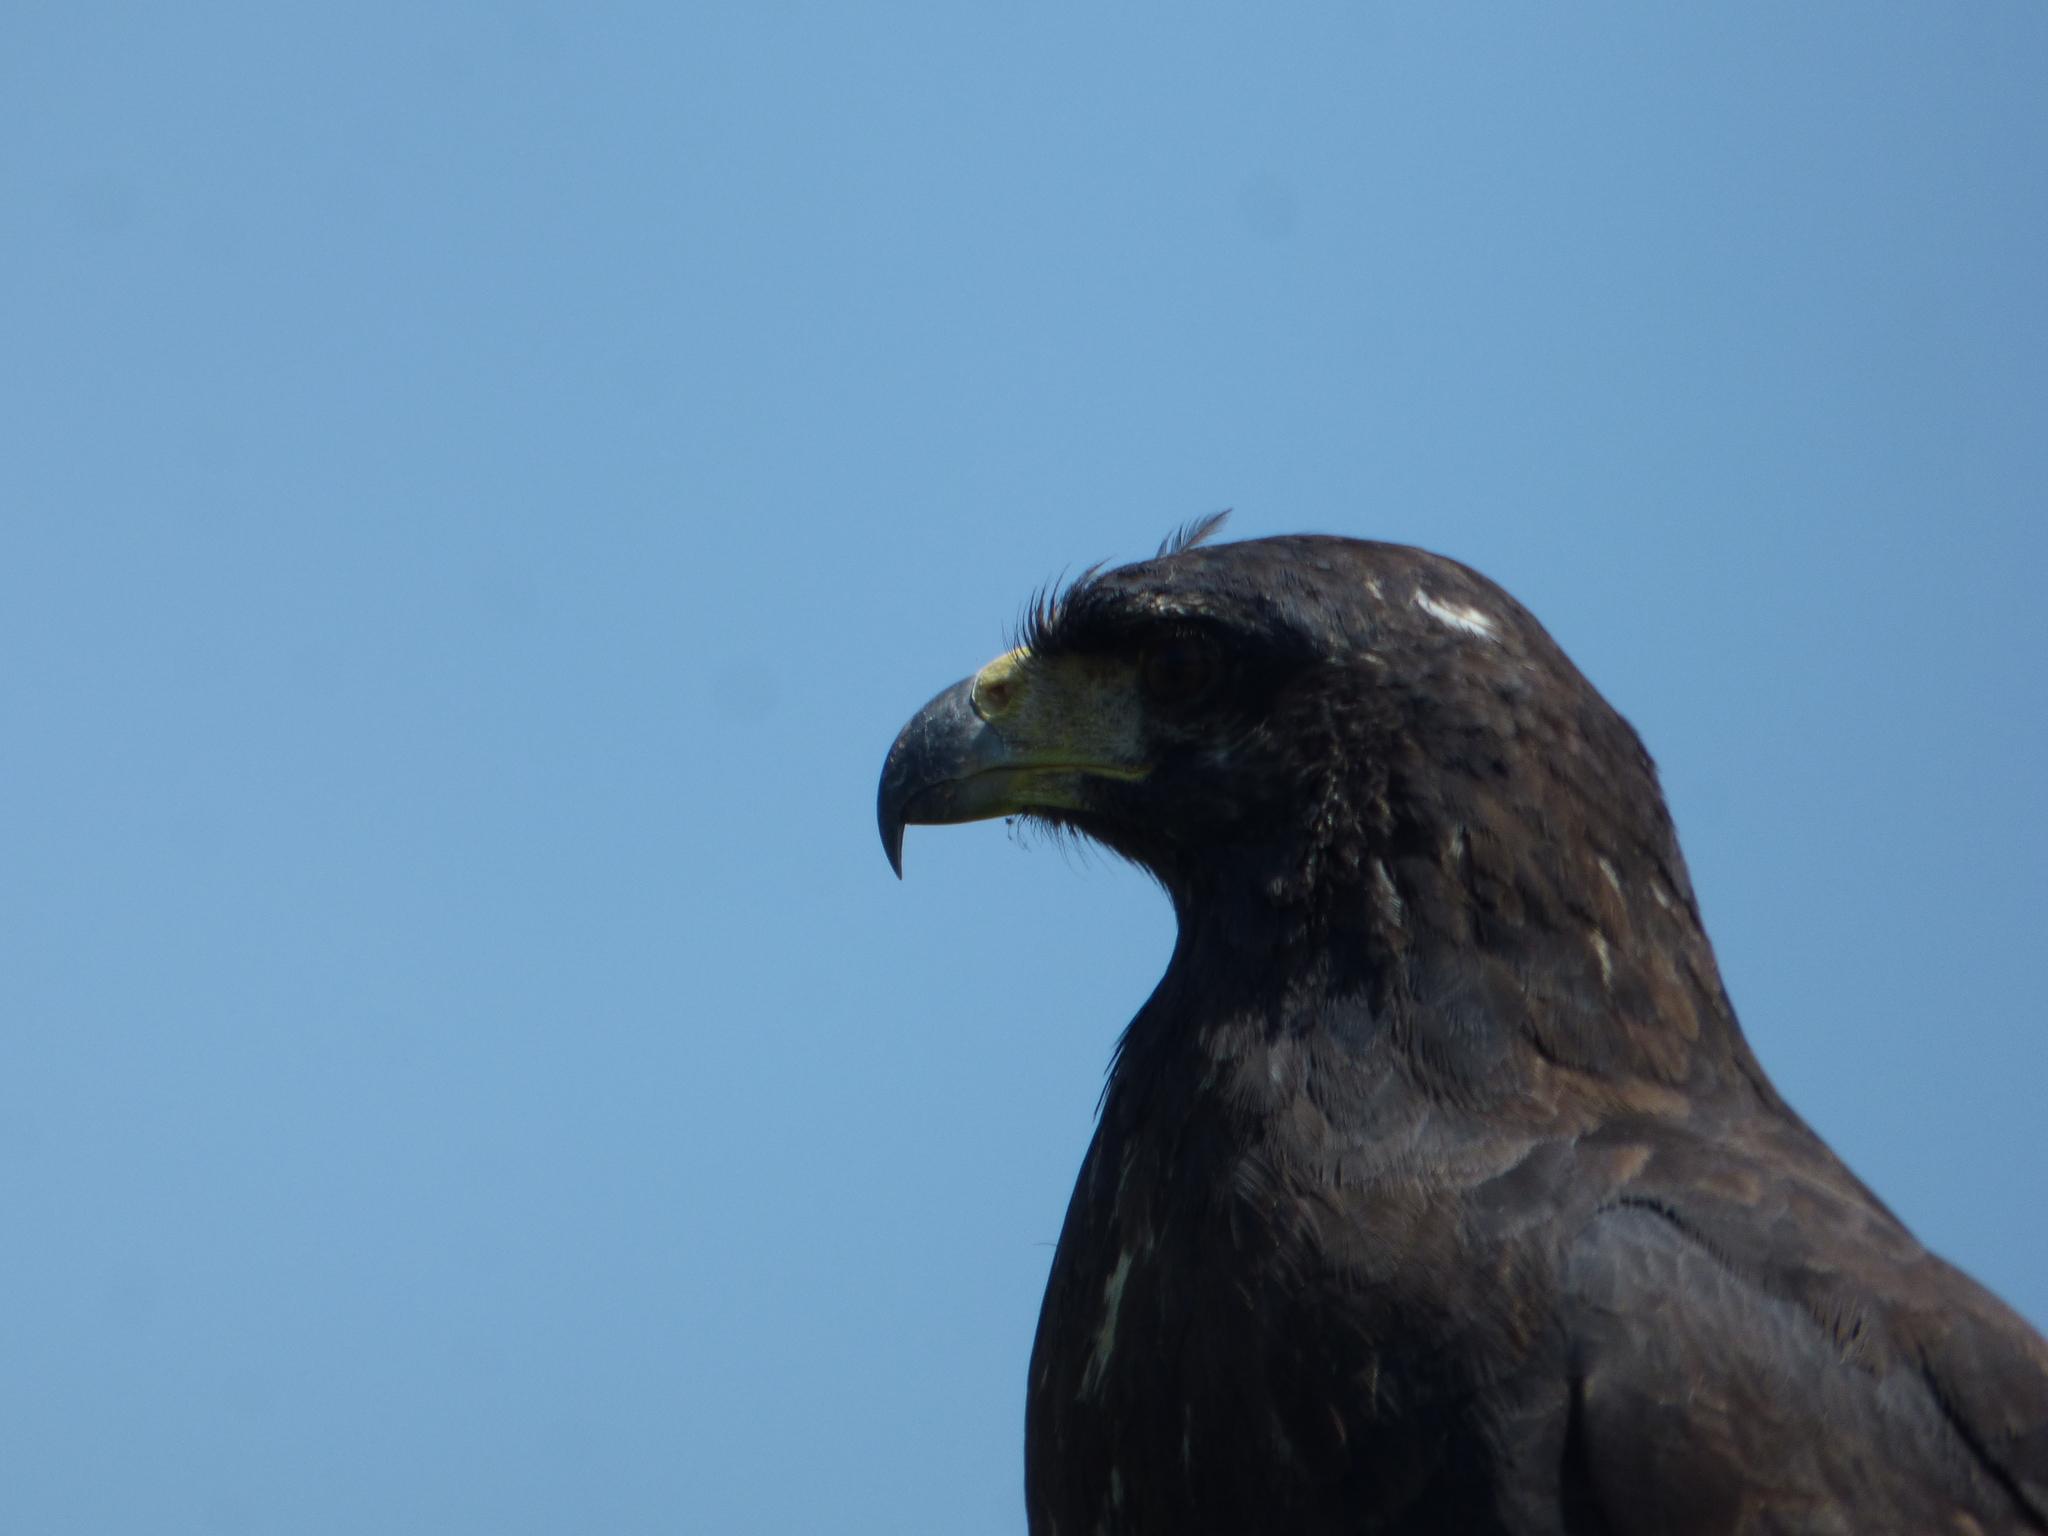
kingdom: Animalia
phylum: Chordata
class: Aves
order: Accipitriformes
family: Accipitridae
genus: Buteogallus
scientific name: Buteogallus urubitinga
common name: Great black hawk
